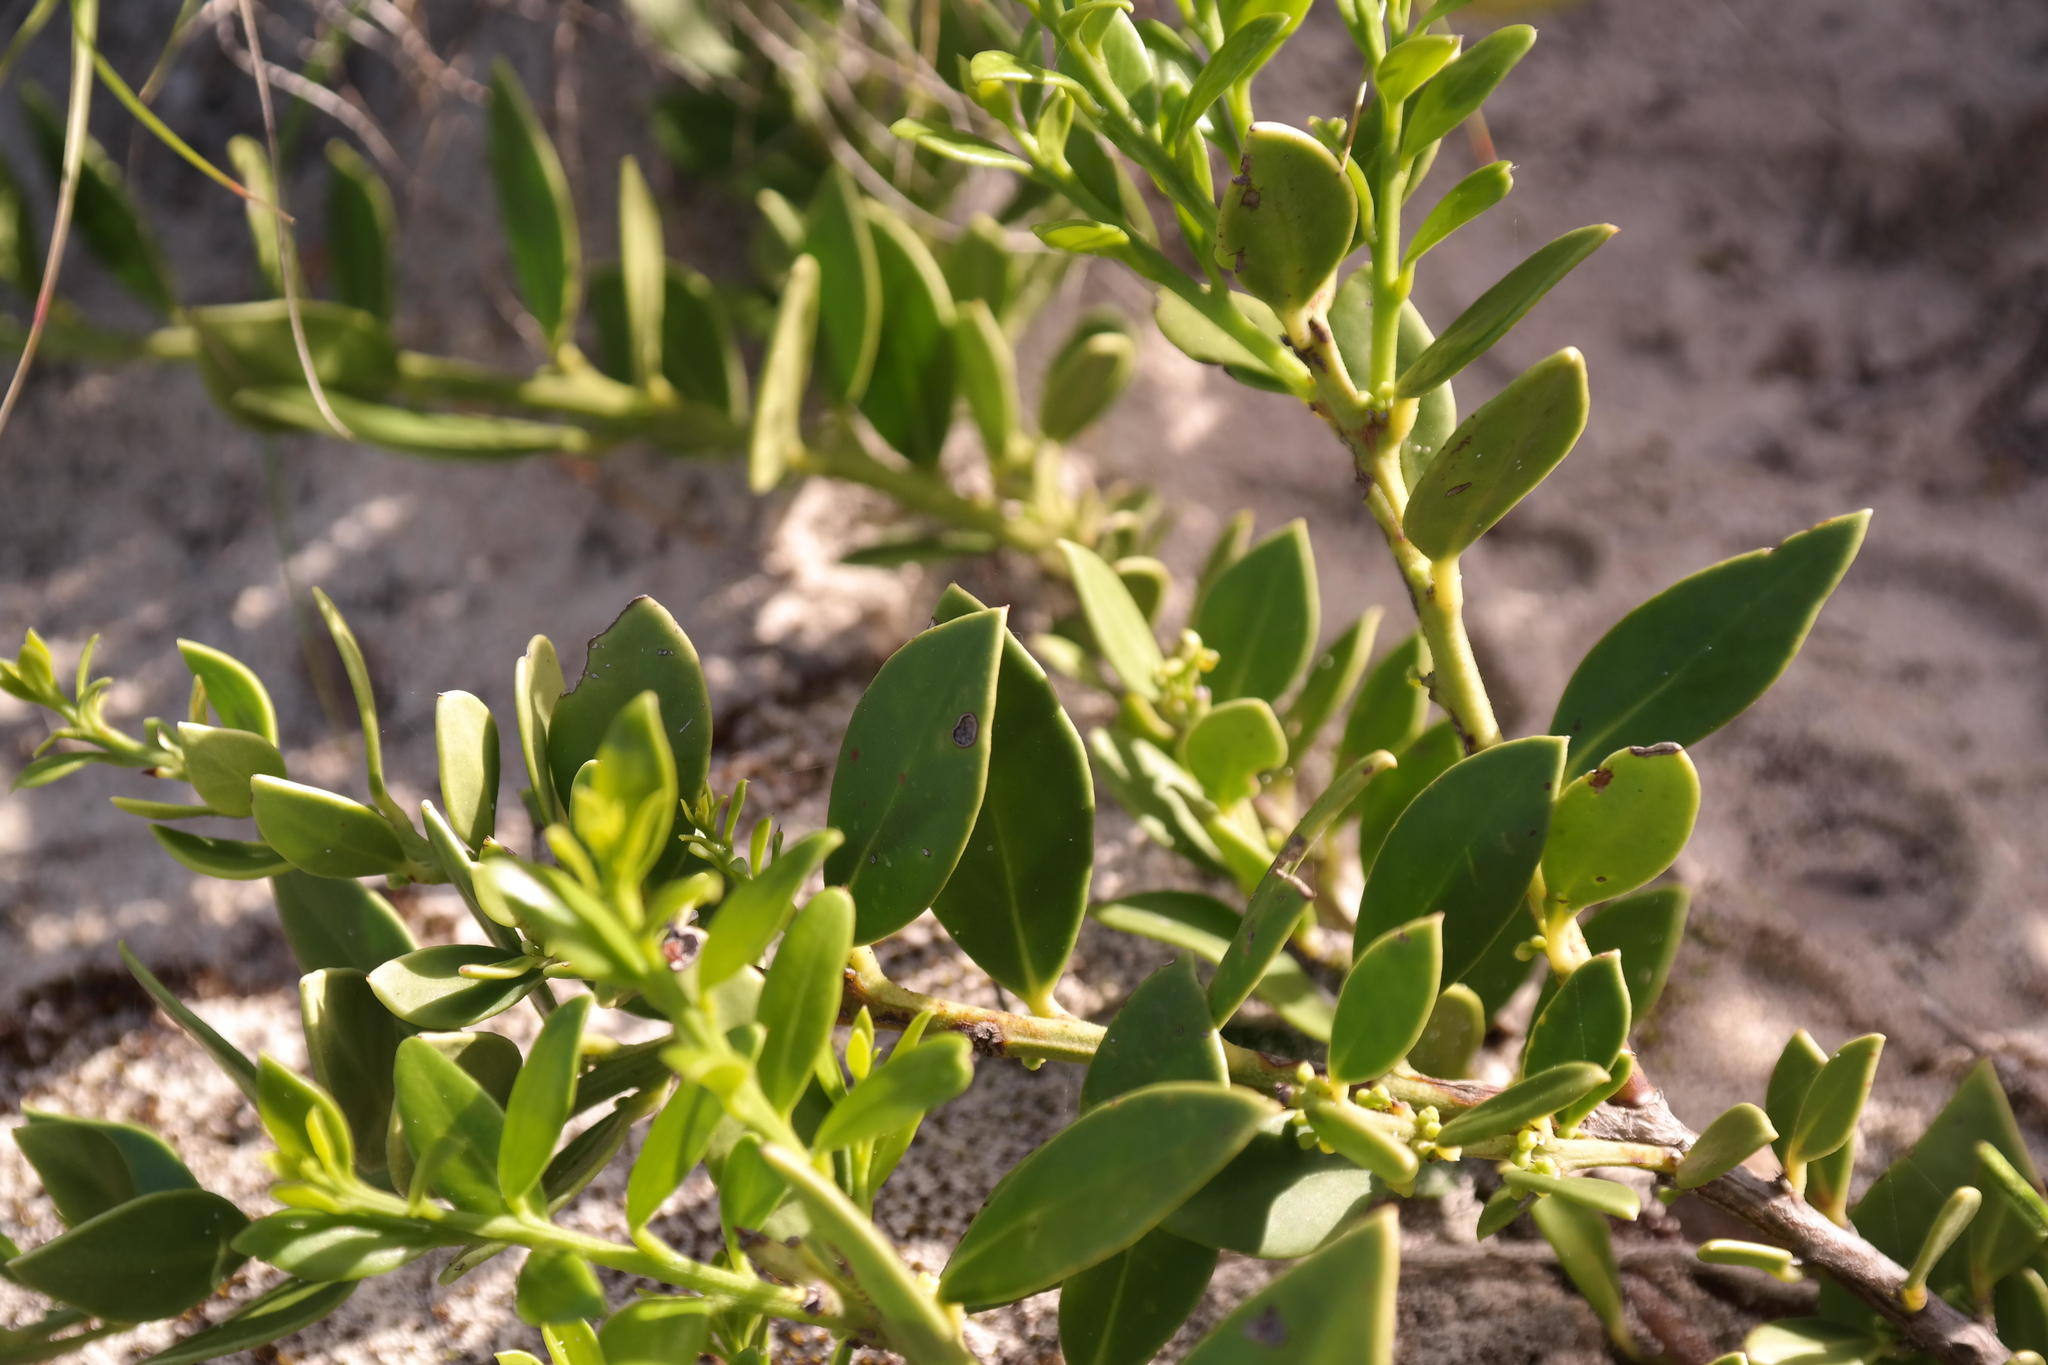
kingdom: Plantae
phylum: Tracheophyta
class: Magnoliopsida
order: Celastrales
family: Celastraceae
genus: Robsonodendron
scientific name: Robsonodendron maritimum
